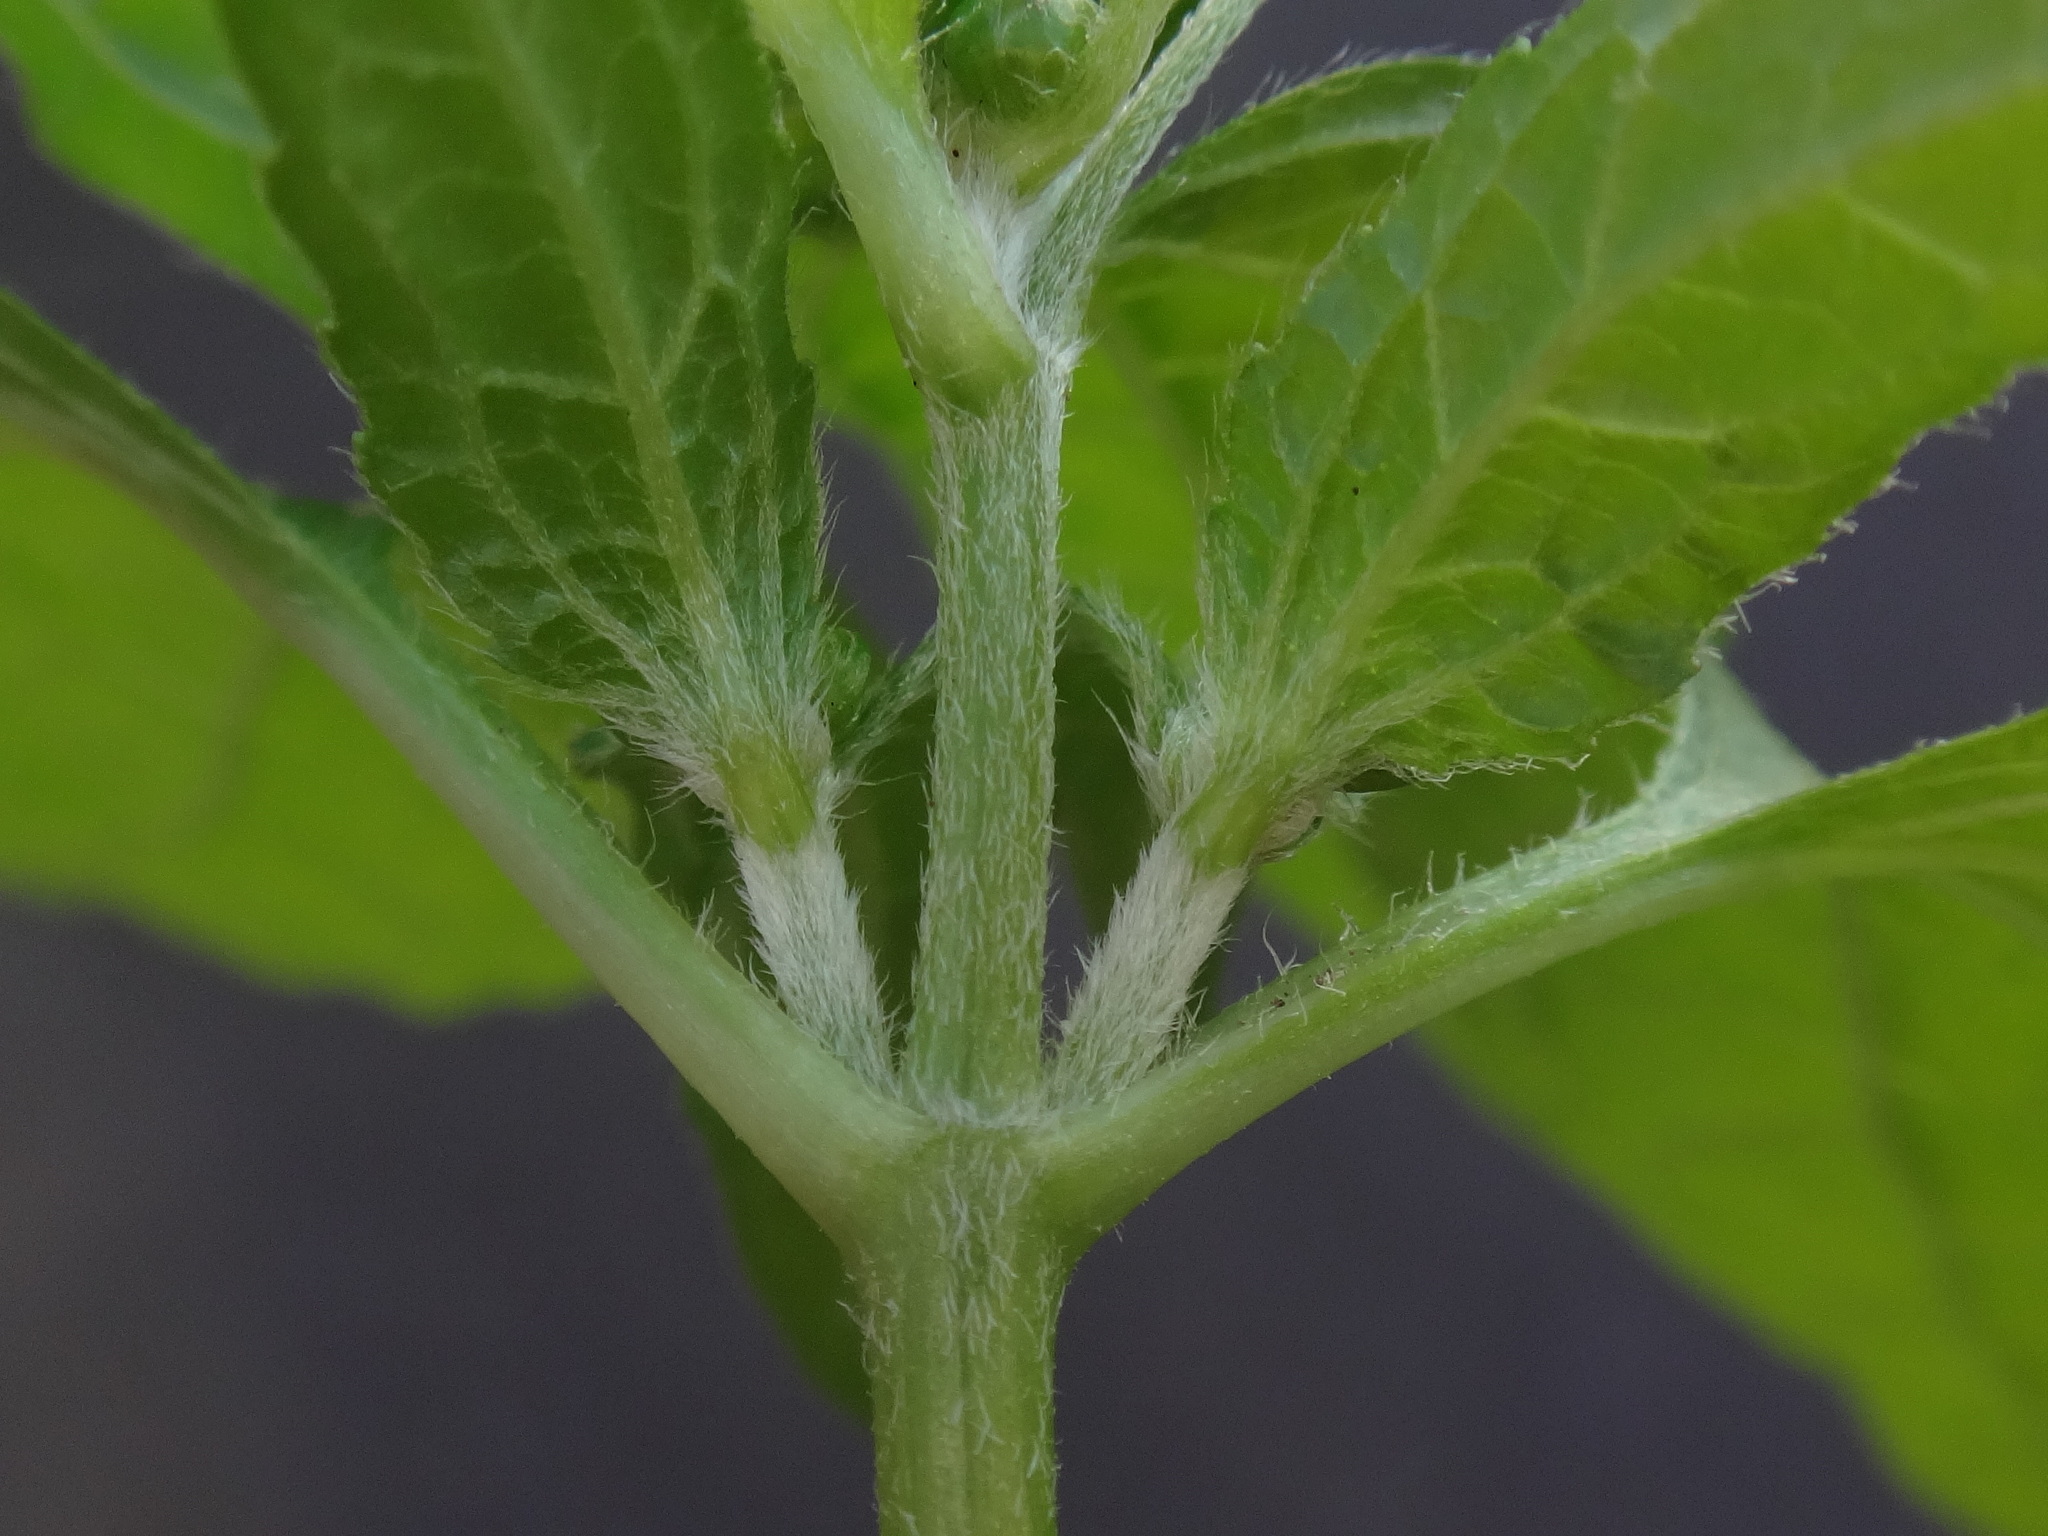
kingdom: Plantae
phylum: Tracheophyta
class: Magnoliopsida
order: Asterales
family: Asteraceae
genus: Galinsoga
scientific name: Galinsoga parviflora
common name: Gallant soldier
